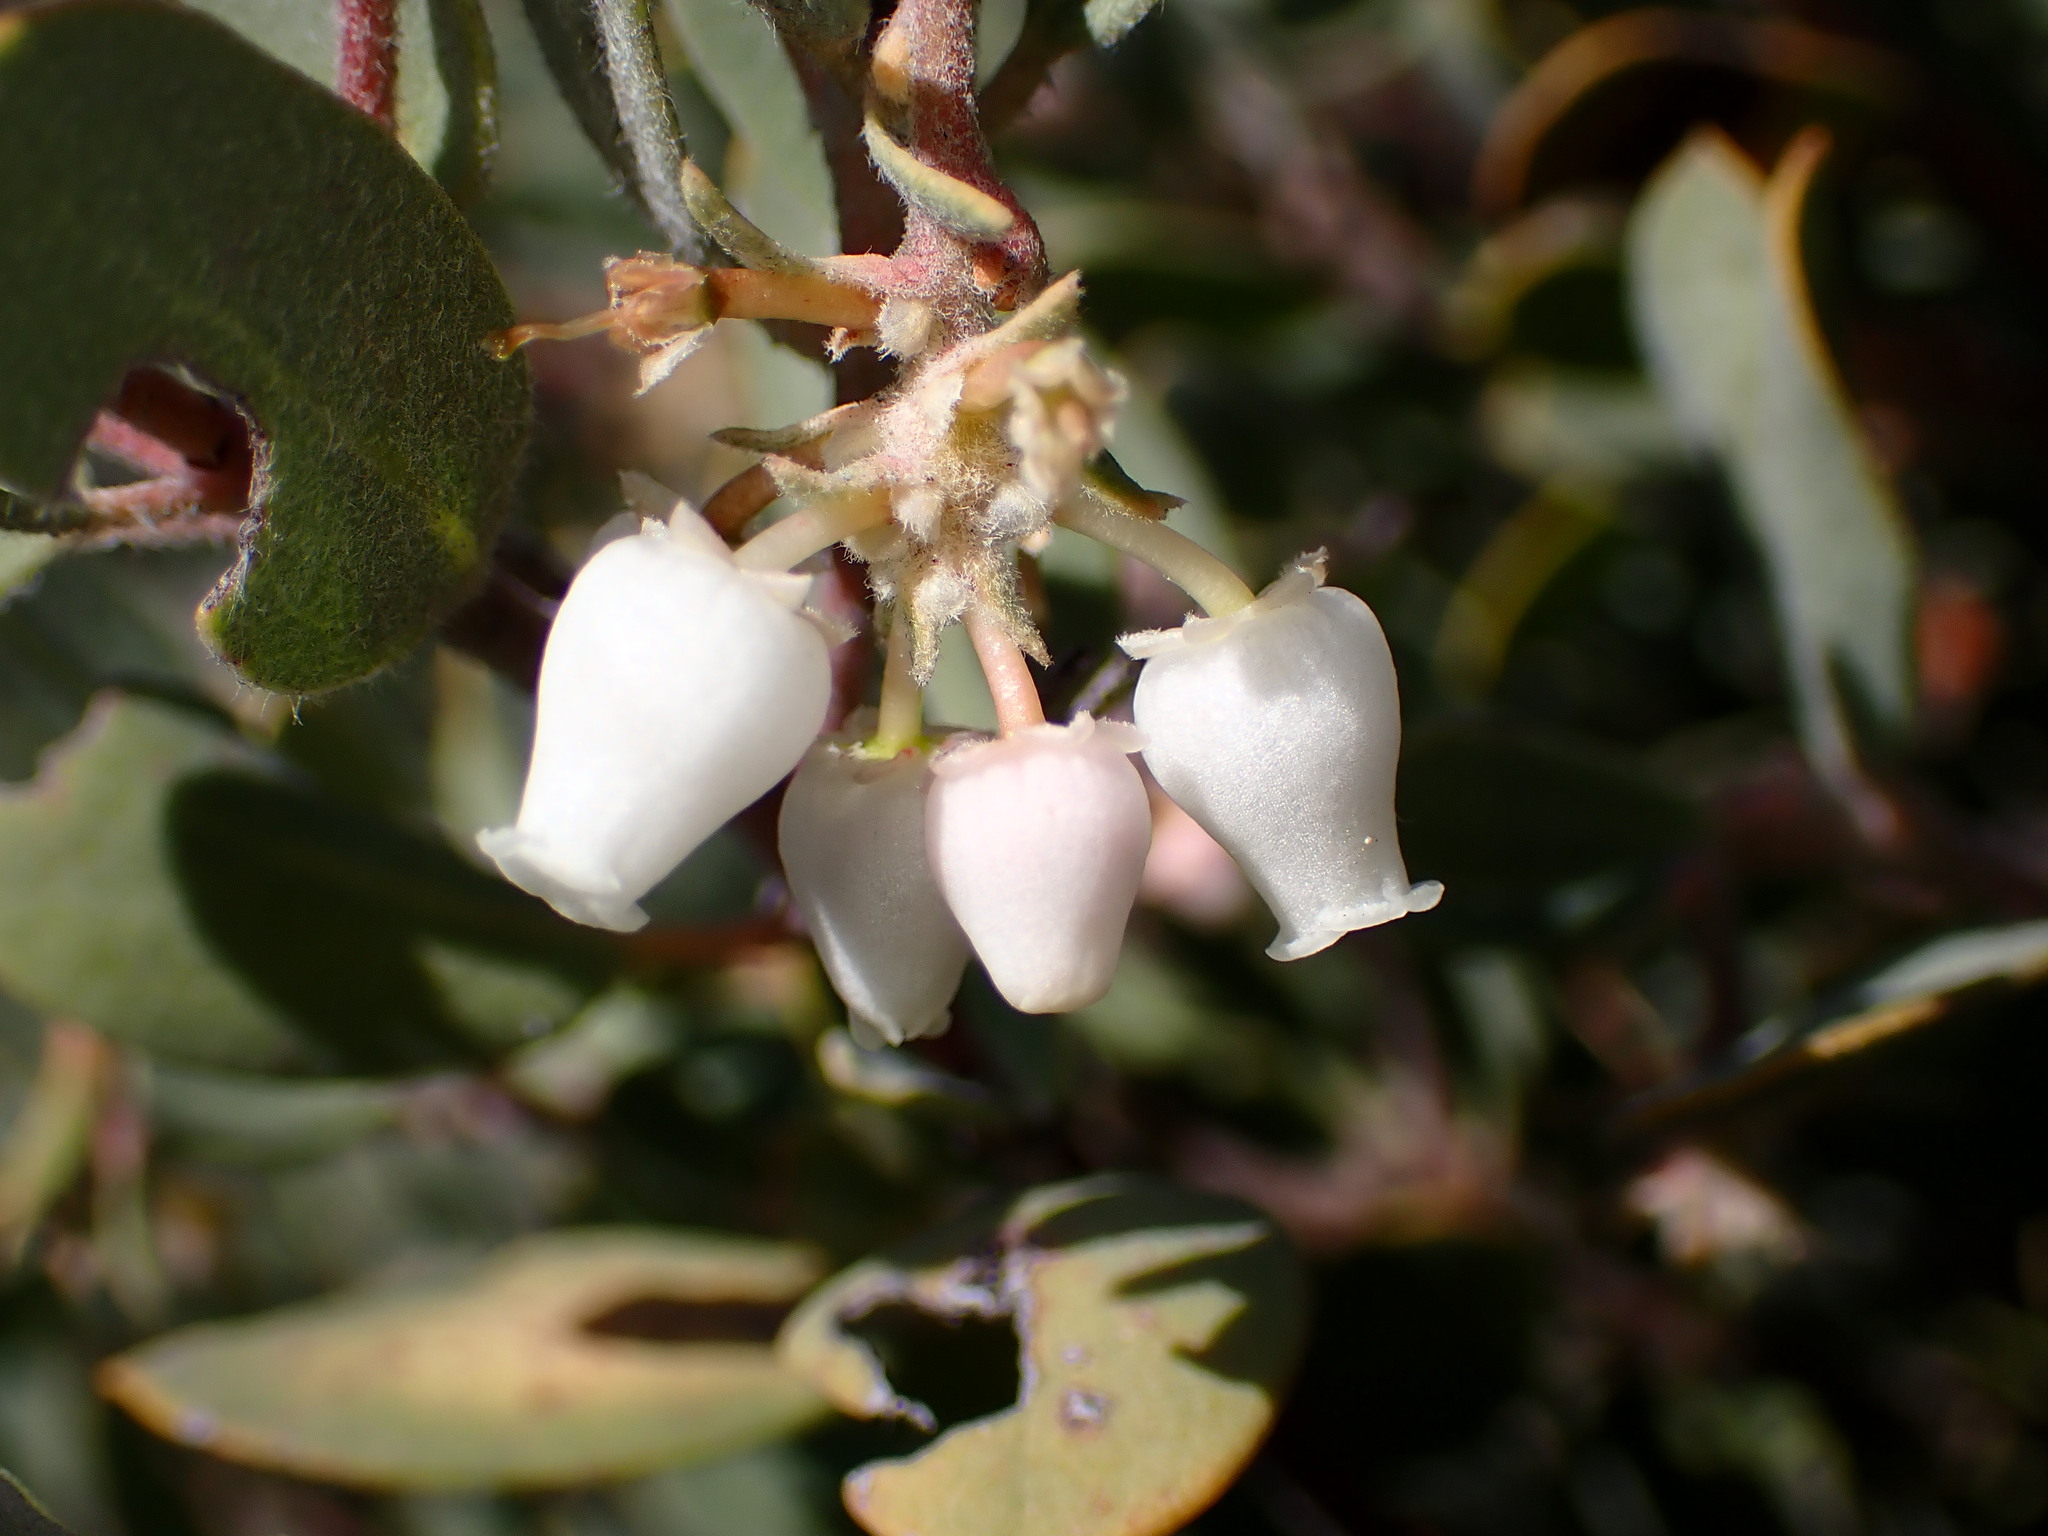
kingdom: Plantae
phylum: Tracheophyta
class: Magnoliopsida
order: Ericales
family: Ericaceae
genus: Arctostaphylos
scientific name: Arctostaphylos silvicola
